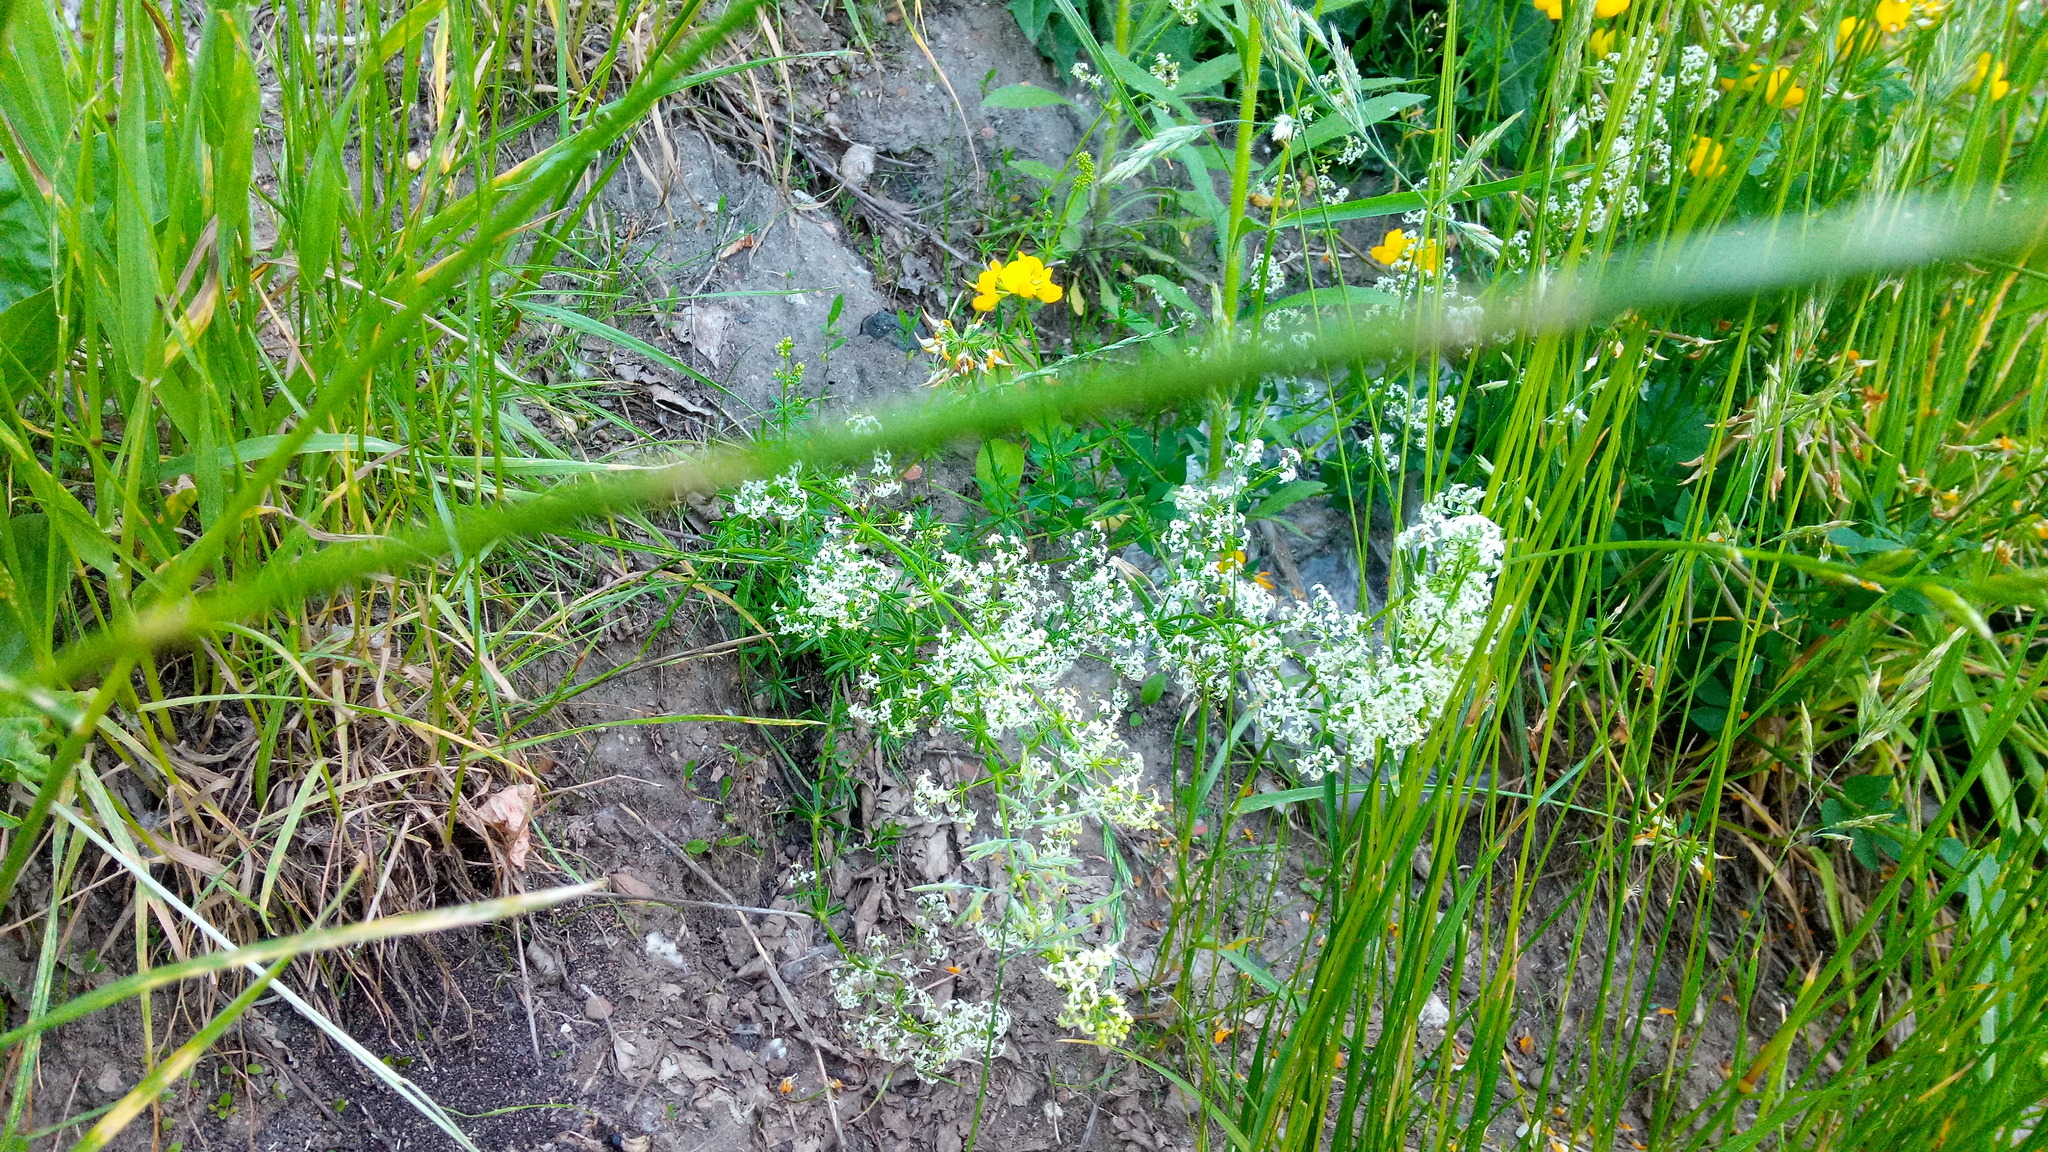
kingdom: Plantae
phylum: Tracheophyta
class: Magnoliopsida
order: Gentianales
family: Rubiaceae
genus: Galium
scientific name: Galium mollugo
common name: Hedge bedstraw
